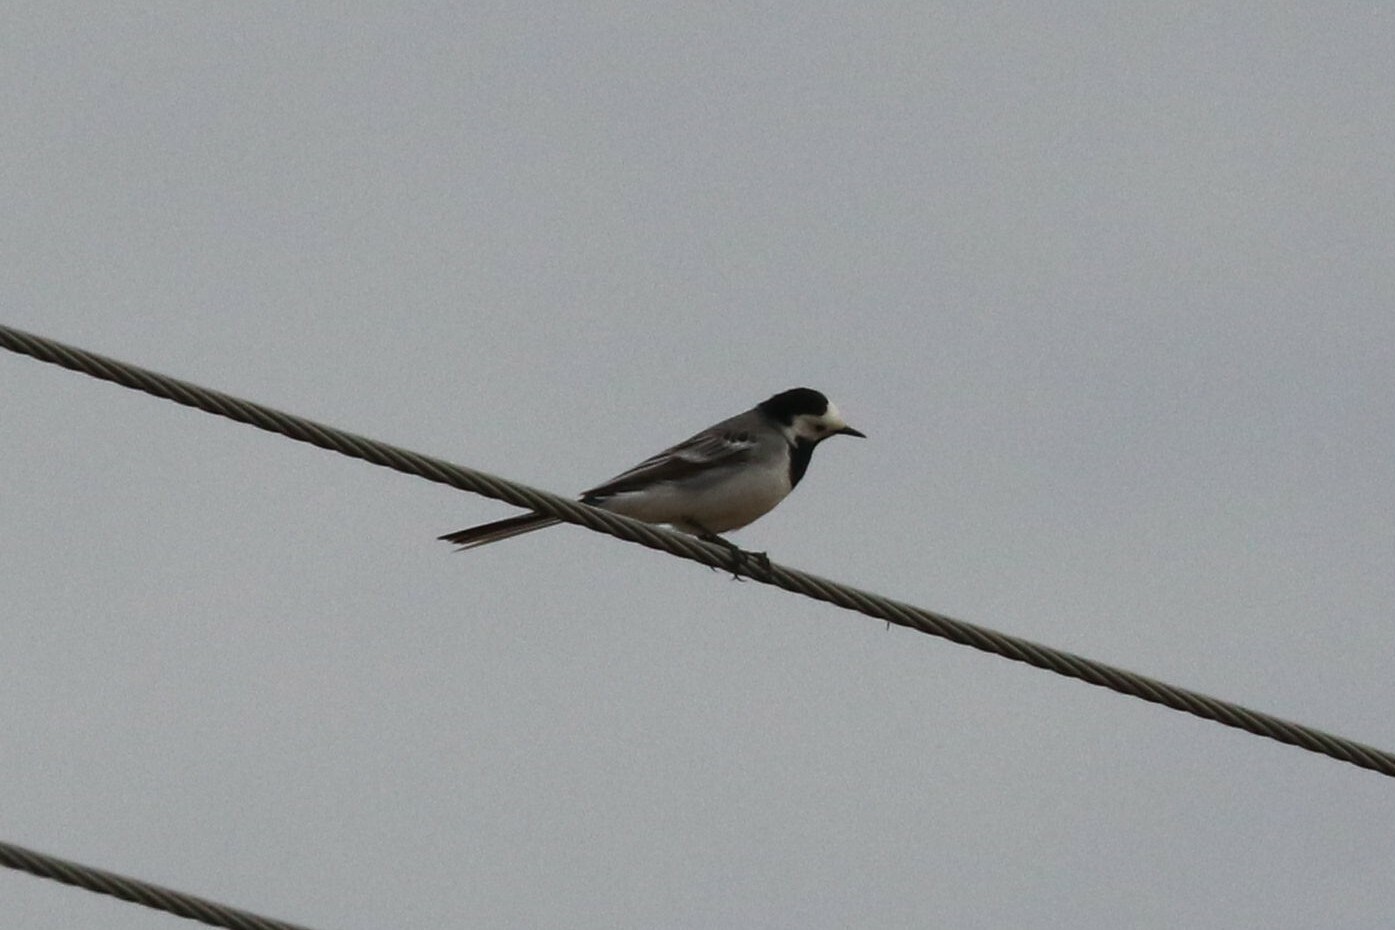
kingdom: Animalia
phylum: Chordata
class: Aves
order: Passeriformes
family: Motacillidae
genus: Motacilla
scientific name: Motacilla alba
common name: White wagtail
